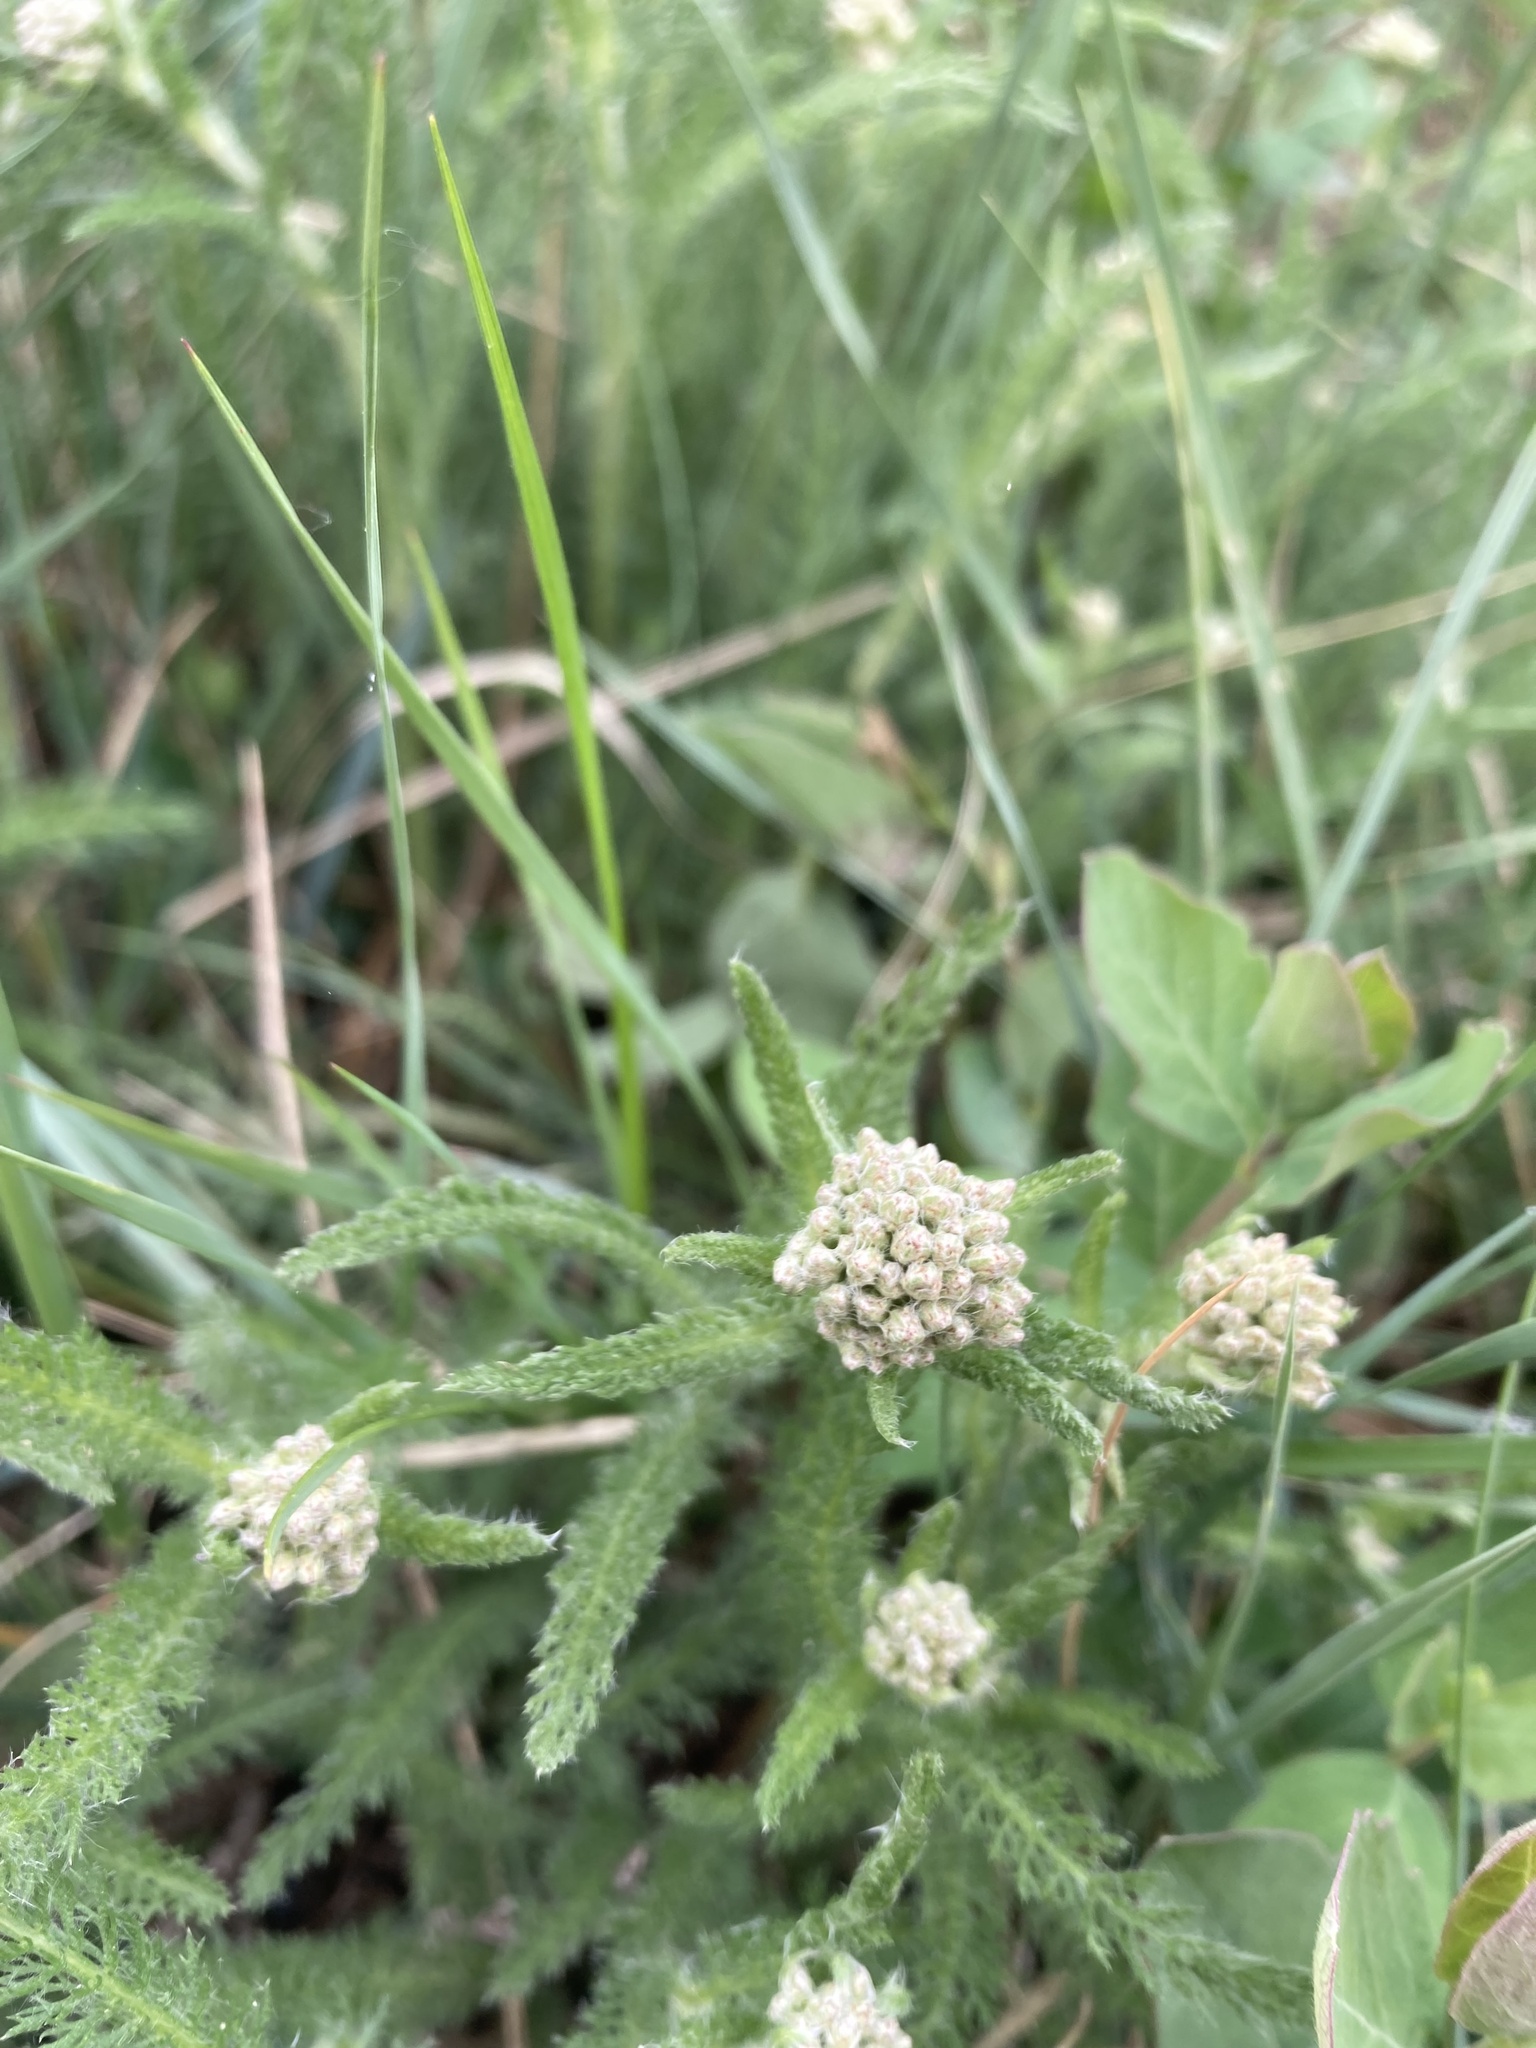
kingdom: Plantae
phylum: Tracheophyta
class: Magnoliopsida
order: Asterales
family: Asteraceae
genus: Achillea
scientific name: Achillea millefolium
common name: Yarrow
